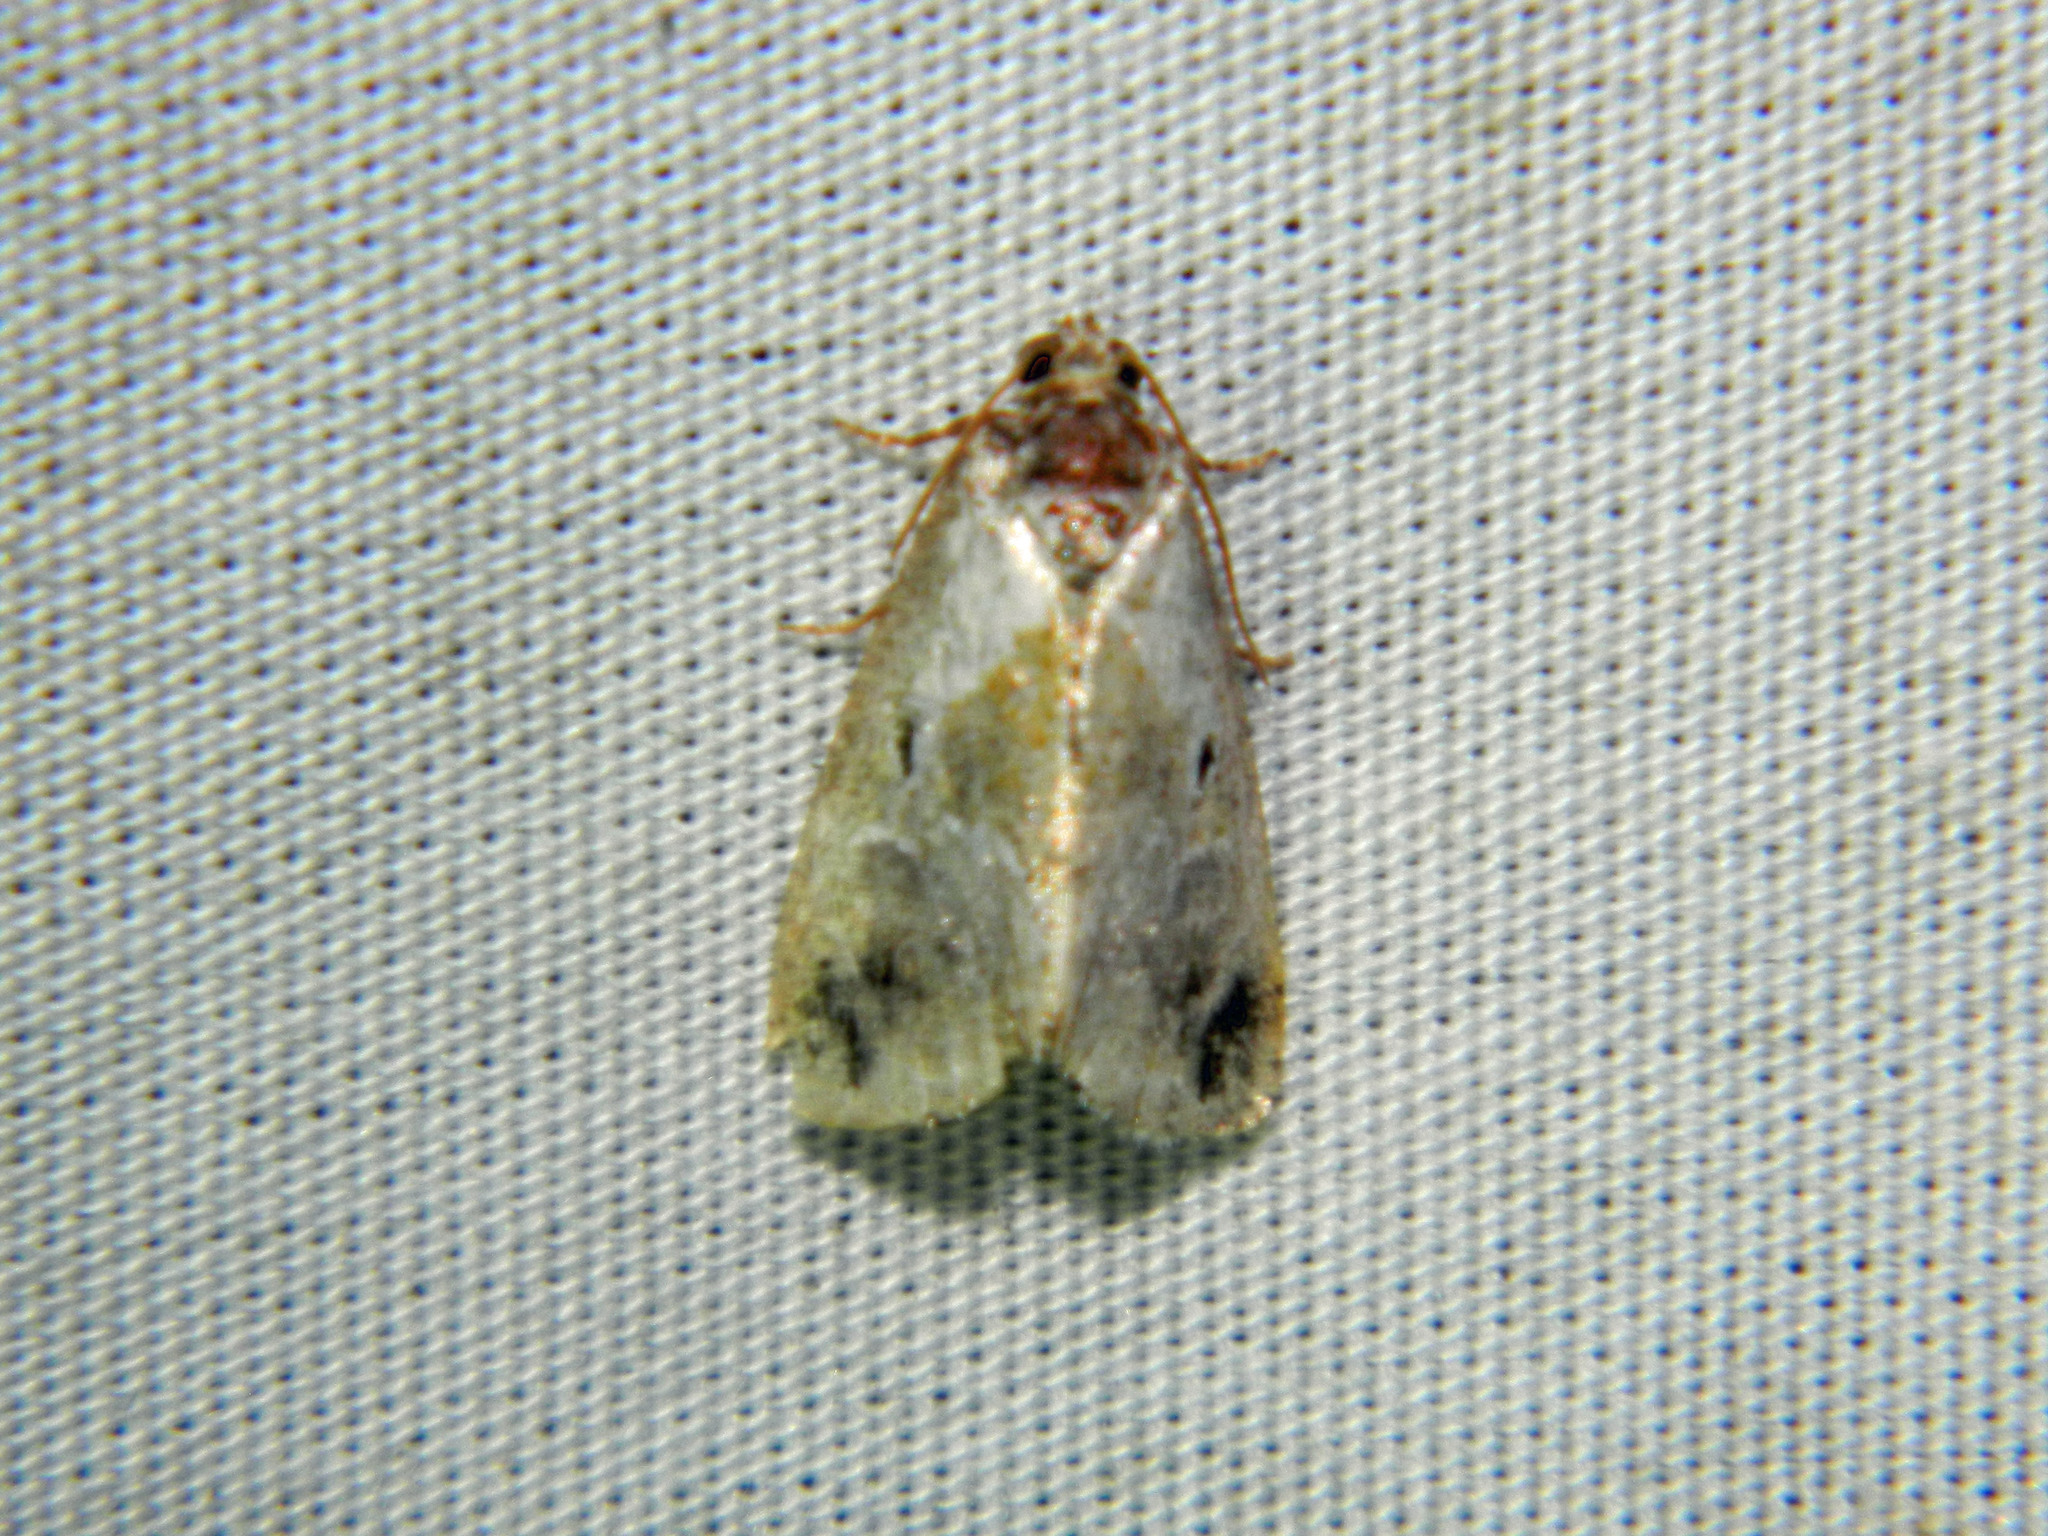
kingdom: Animalia
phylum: Arthropoda
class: Insecta
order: Lepidoptera
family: Noctuidae
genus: Maliattha
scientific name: Maliattha synochitis
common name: Black-dotted glyph
